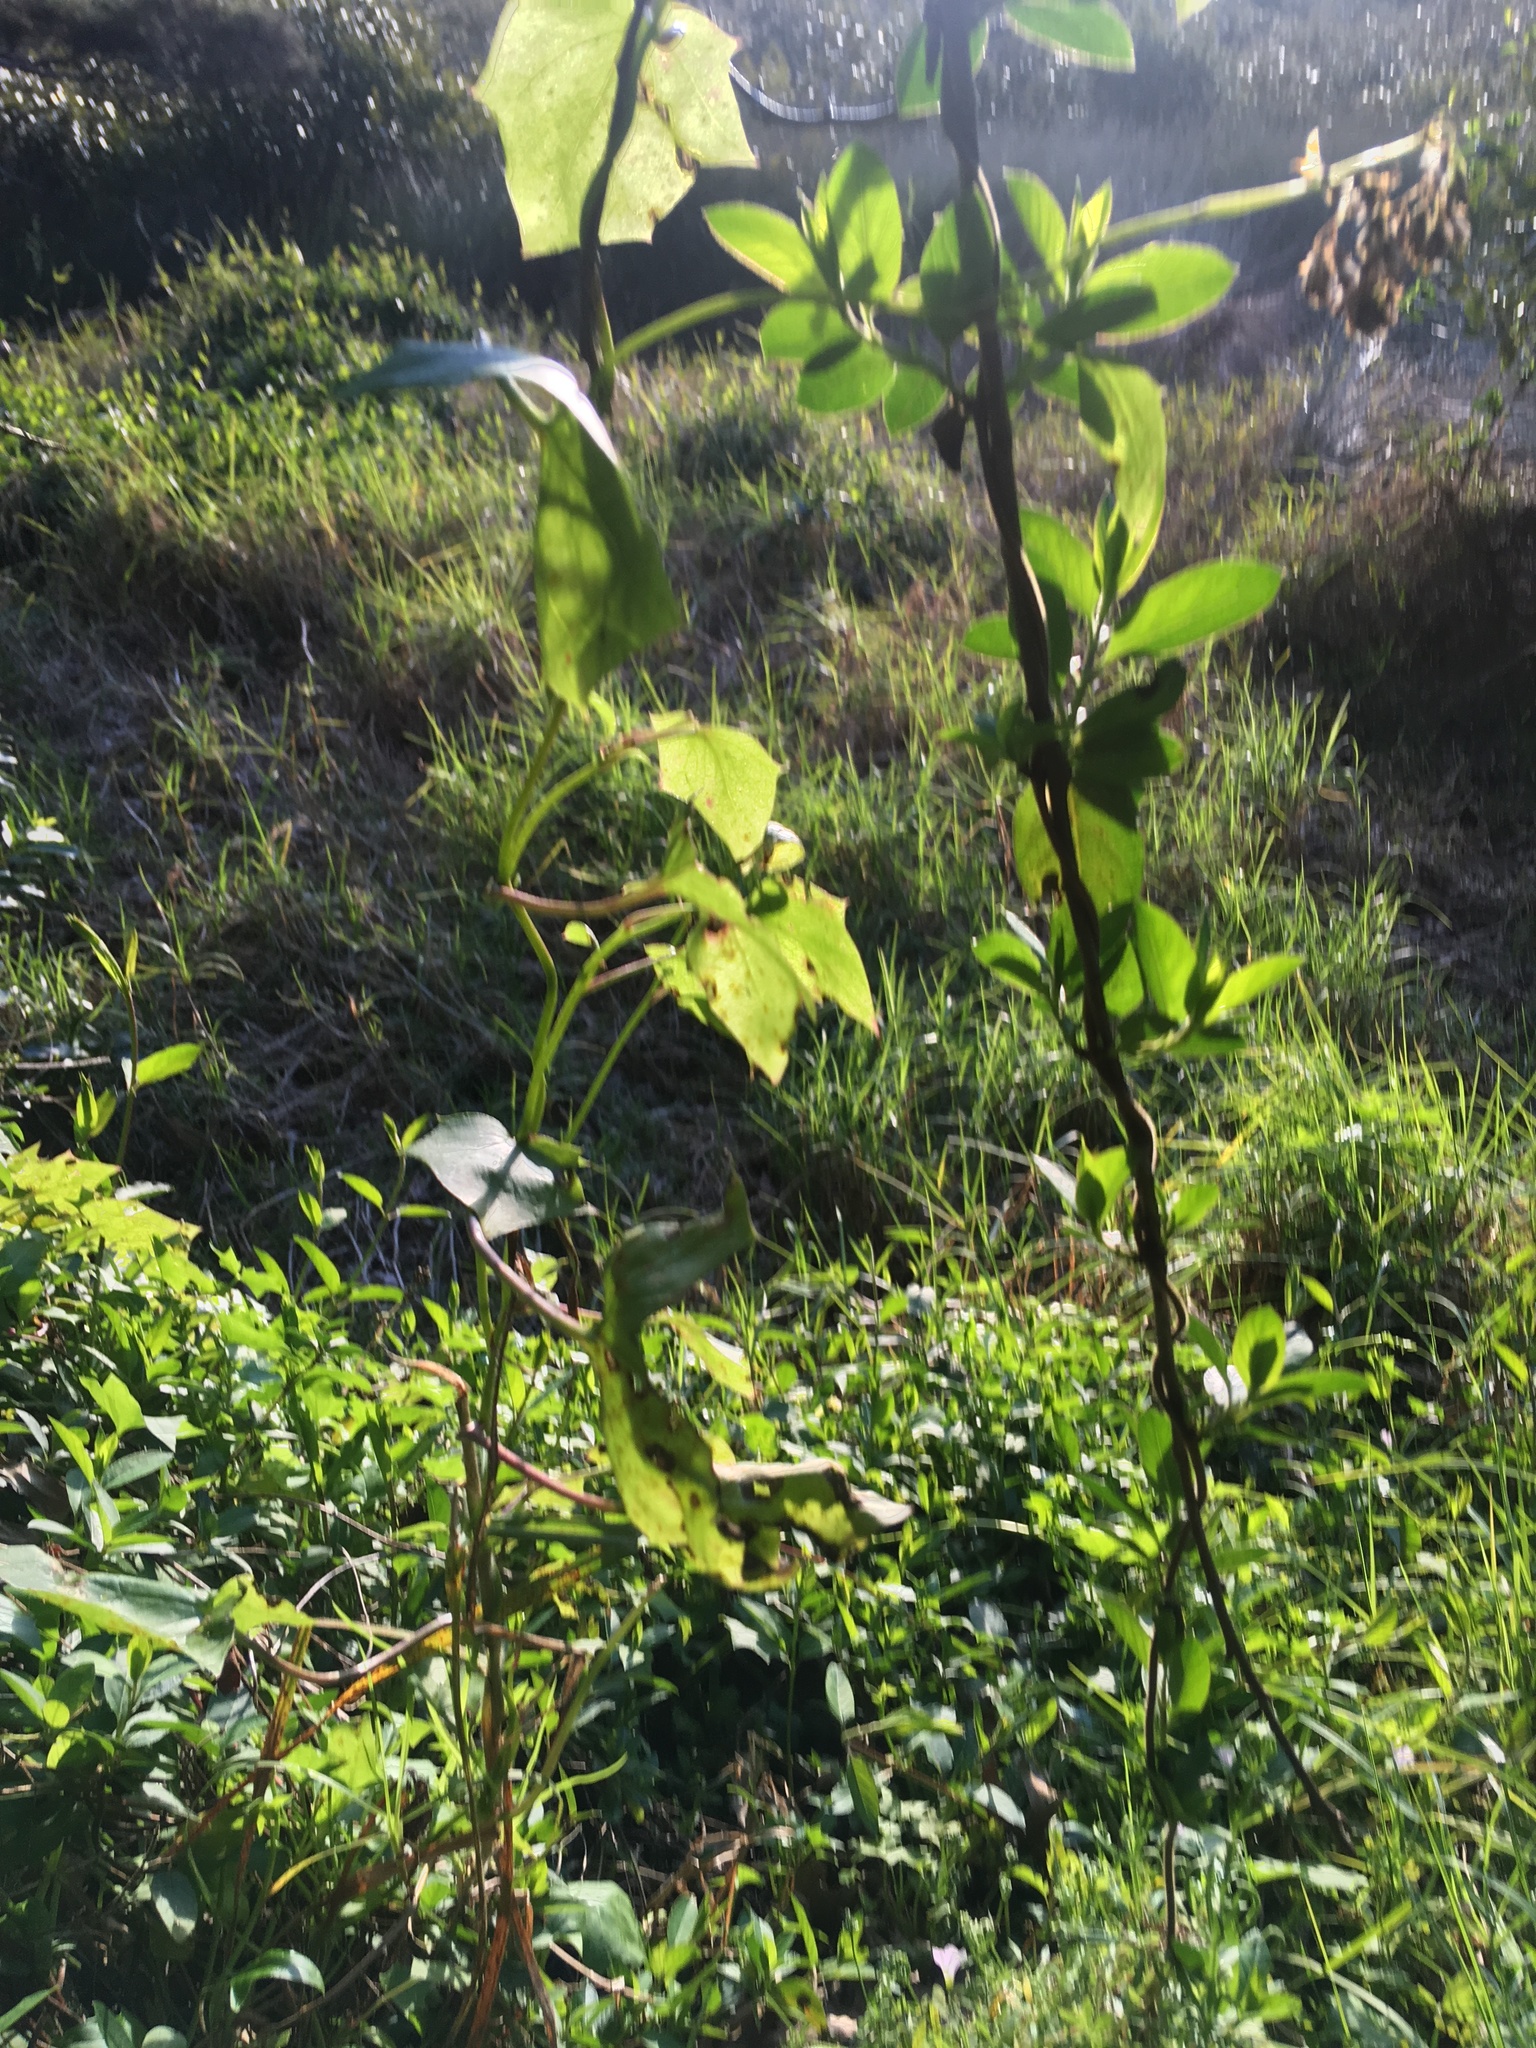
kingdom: Plantae
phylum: Tracheophyta
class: Liliopsida
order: Poales
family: Poaceae
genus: Cenchrus
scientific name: Cenchrus clandestinus
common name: Kikuyugrass
